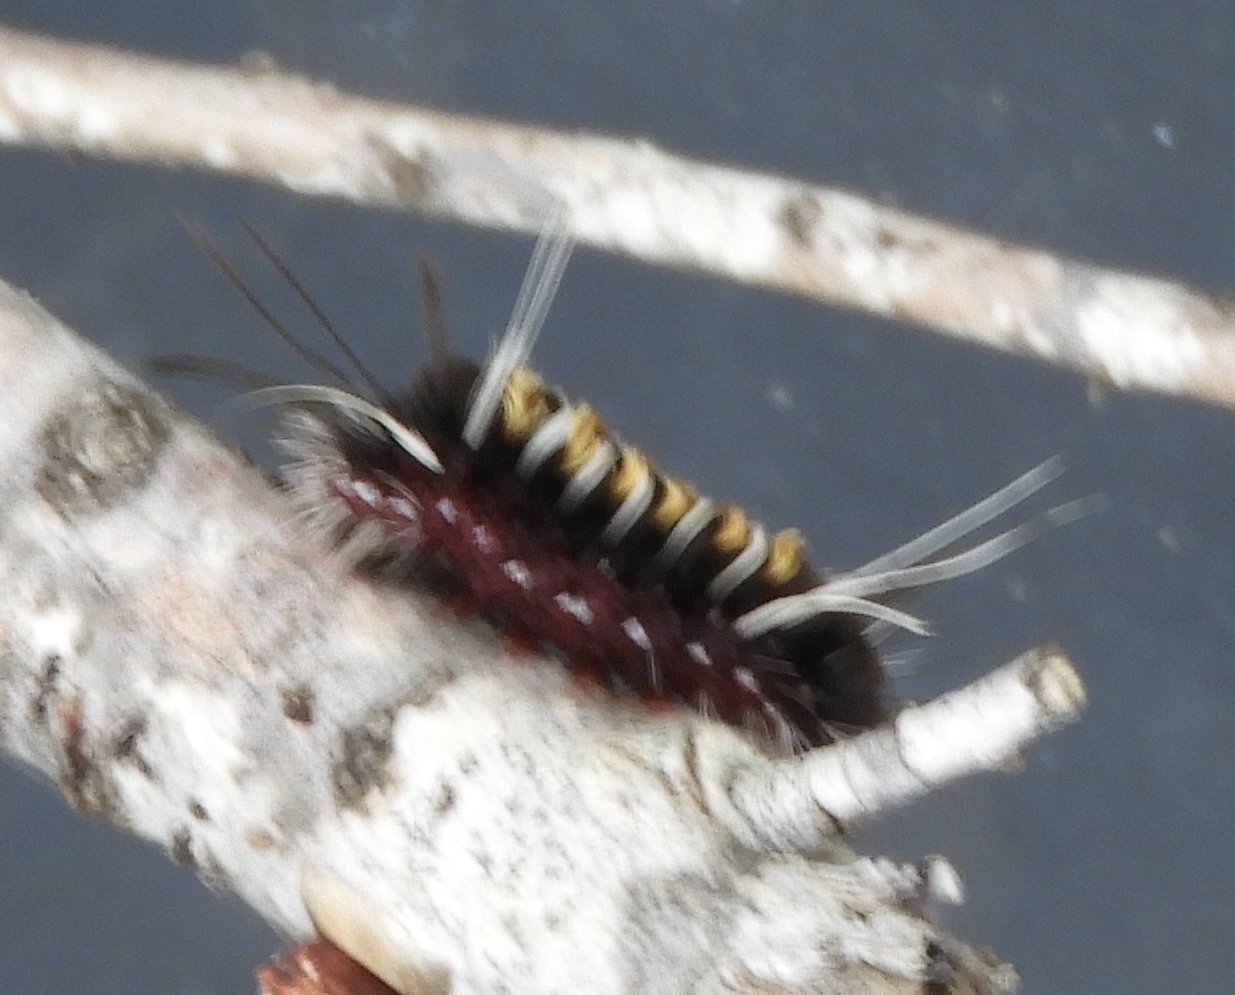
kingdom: Animalia
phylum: Arthropoda
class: Insecta
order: Lepidoptera
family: Erebidae
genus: Euchaetes
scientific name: Euchaetes
